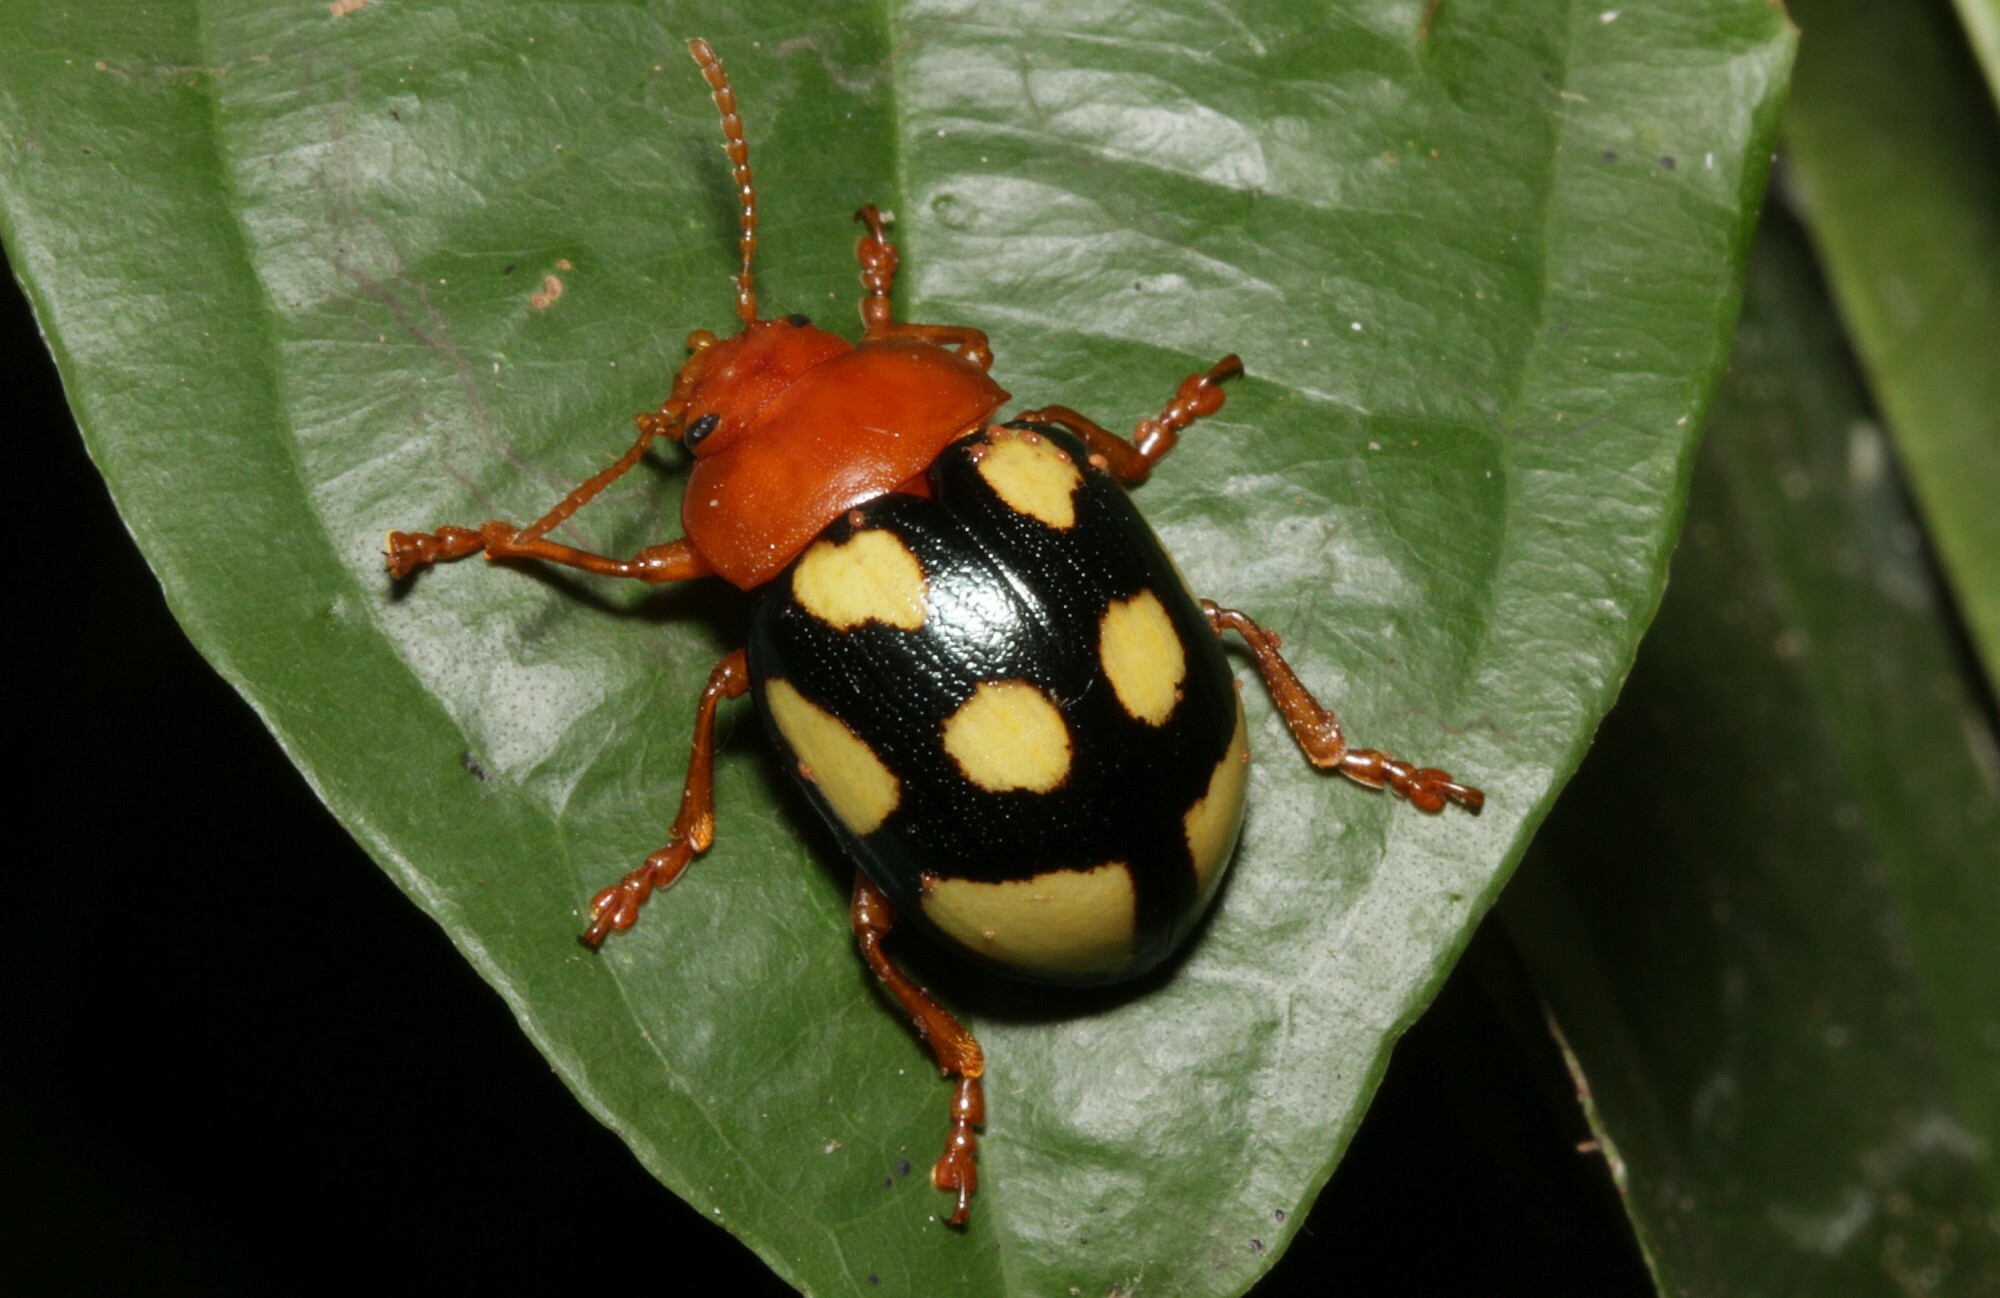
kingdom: Animalia
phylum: Arthropoda
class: Insecta
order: Coleoptera
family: Chrysomelidae
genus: Platyphora
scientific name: Platyphora
